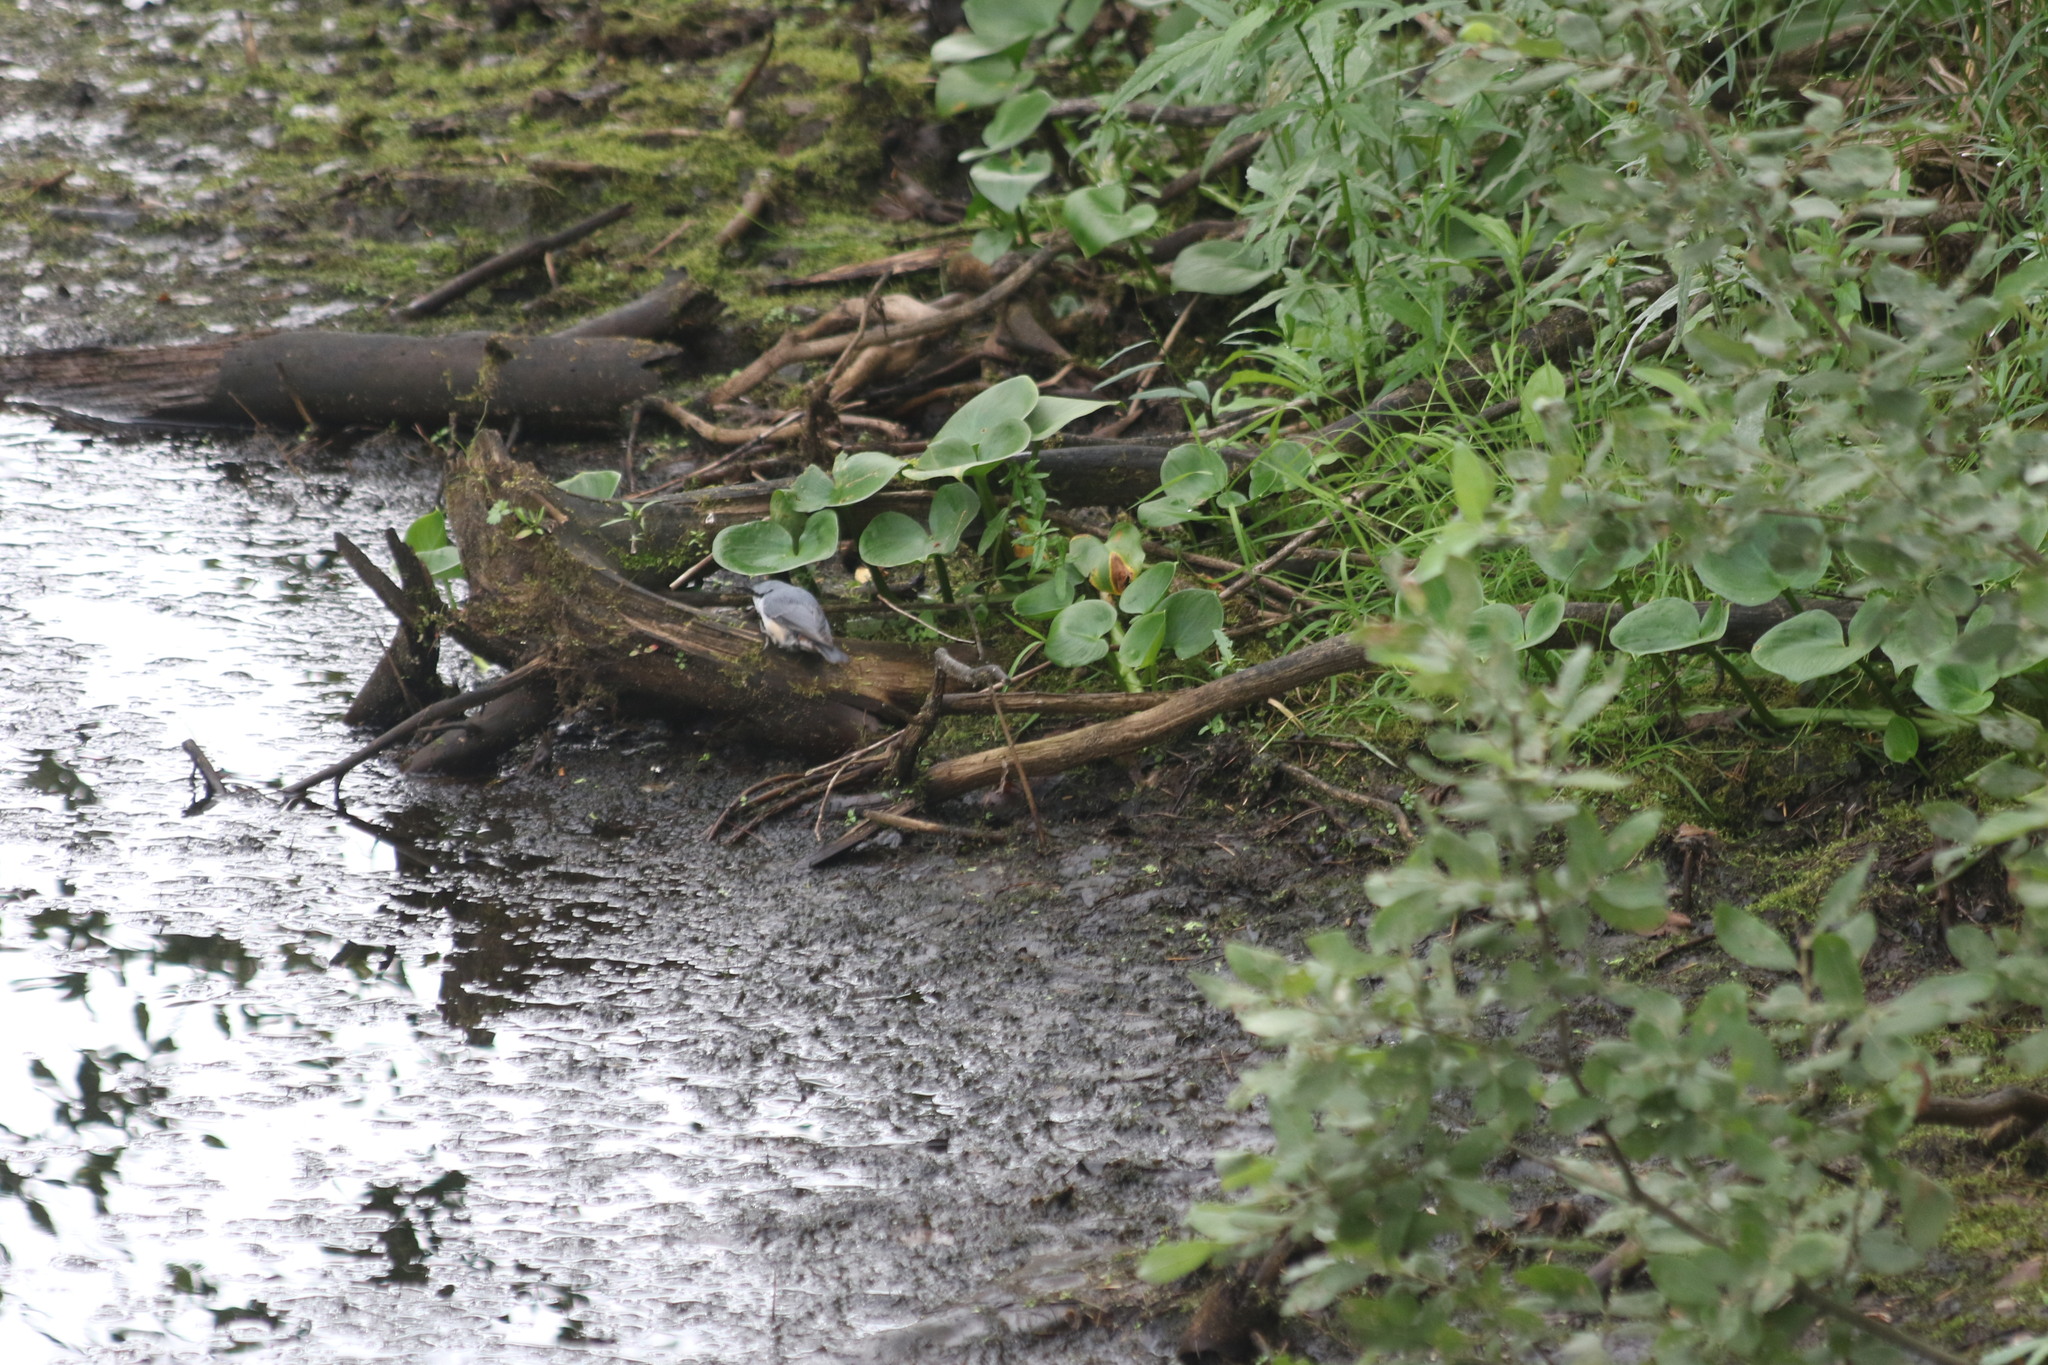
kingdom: Animalia
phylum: Chordata
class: Aves
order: Passeriformes
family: Sittidae
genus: Sitta
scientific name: Sitta europaea
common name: Eurasian nuthatch
